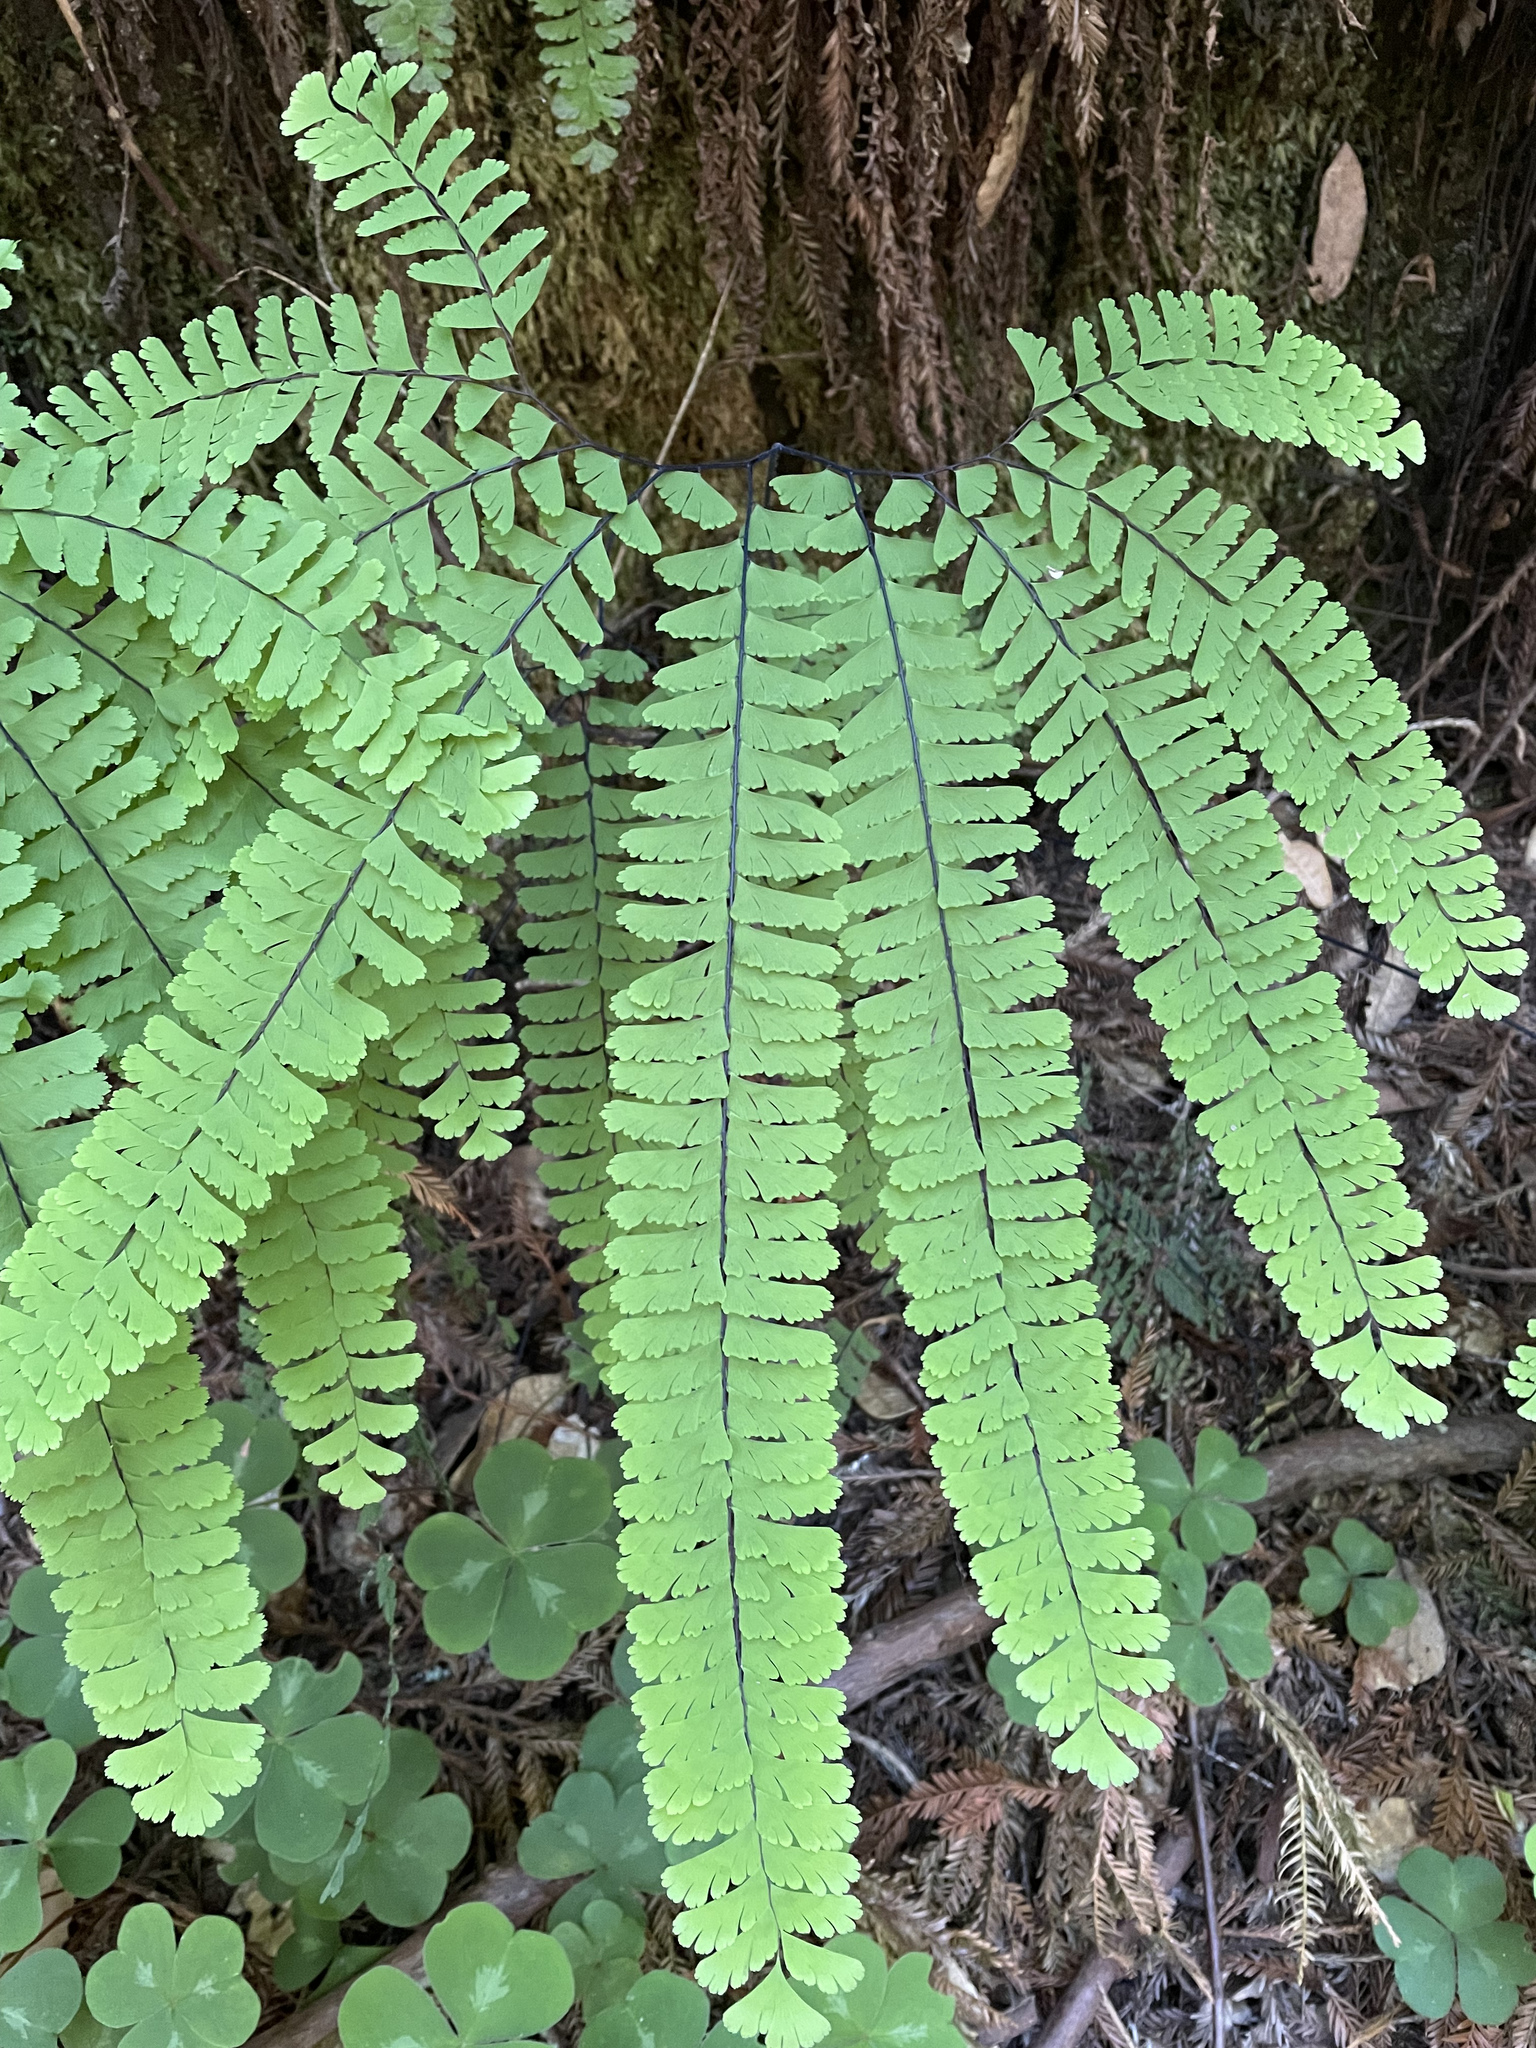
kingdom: Plantae
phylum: Tracheophyta
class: Polypodiopsida
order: Polypodiales
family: Pteridaceae
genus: Adiantum
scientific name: Adiantum aleuticum
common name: Aleutian maidenhair fern
